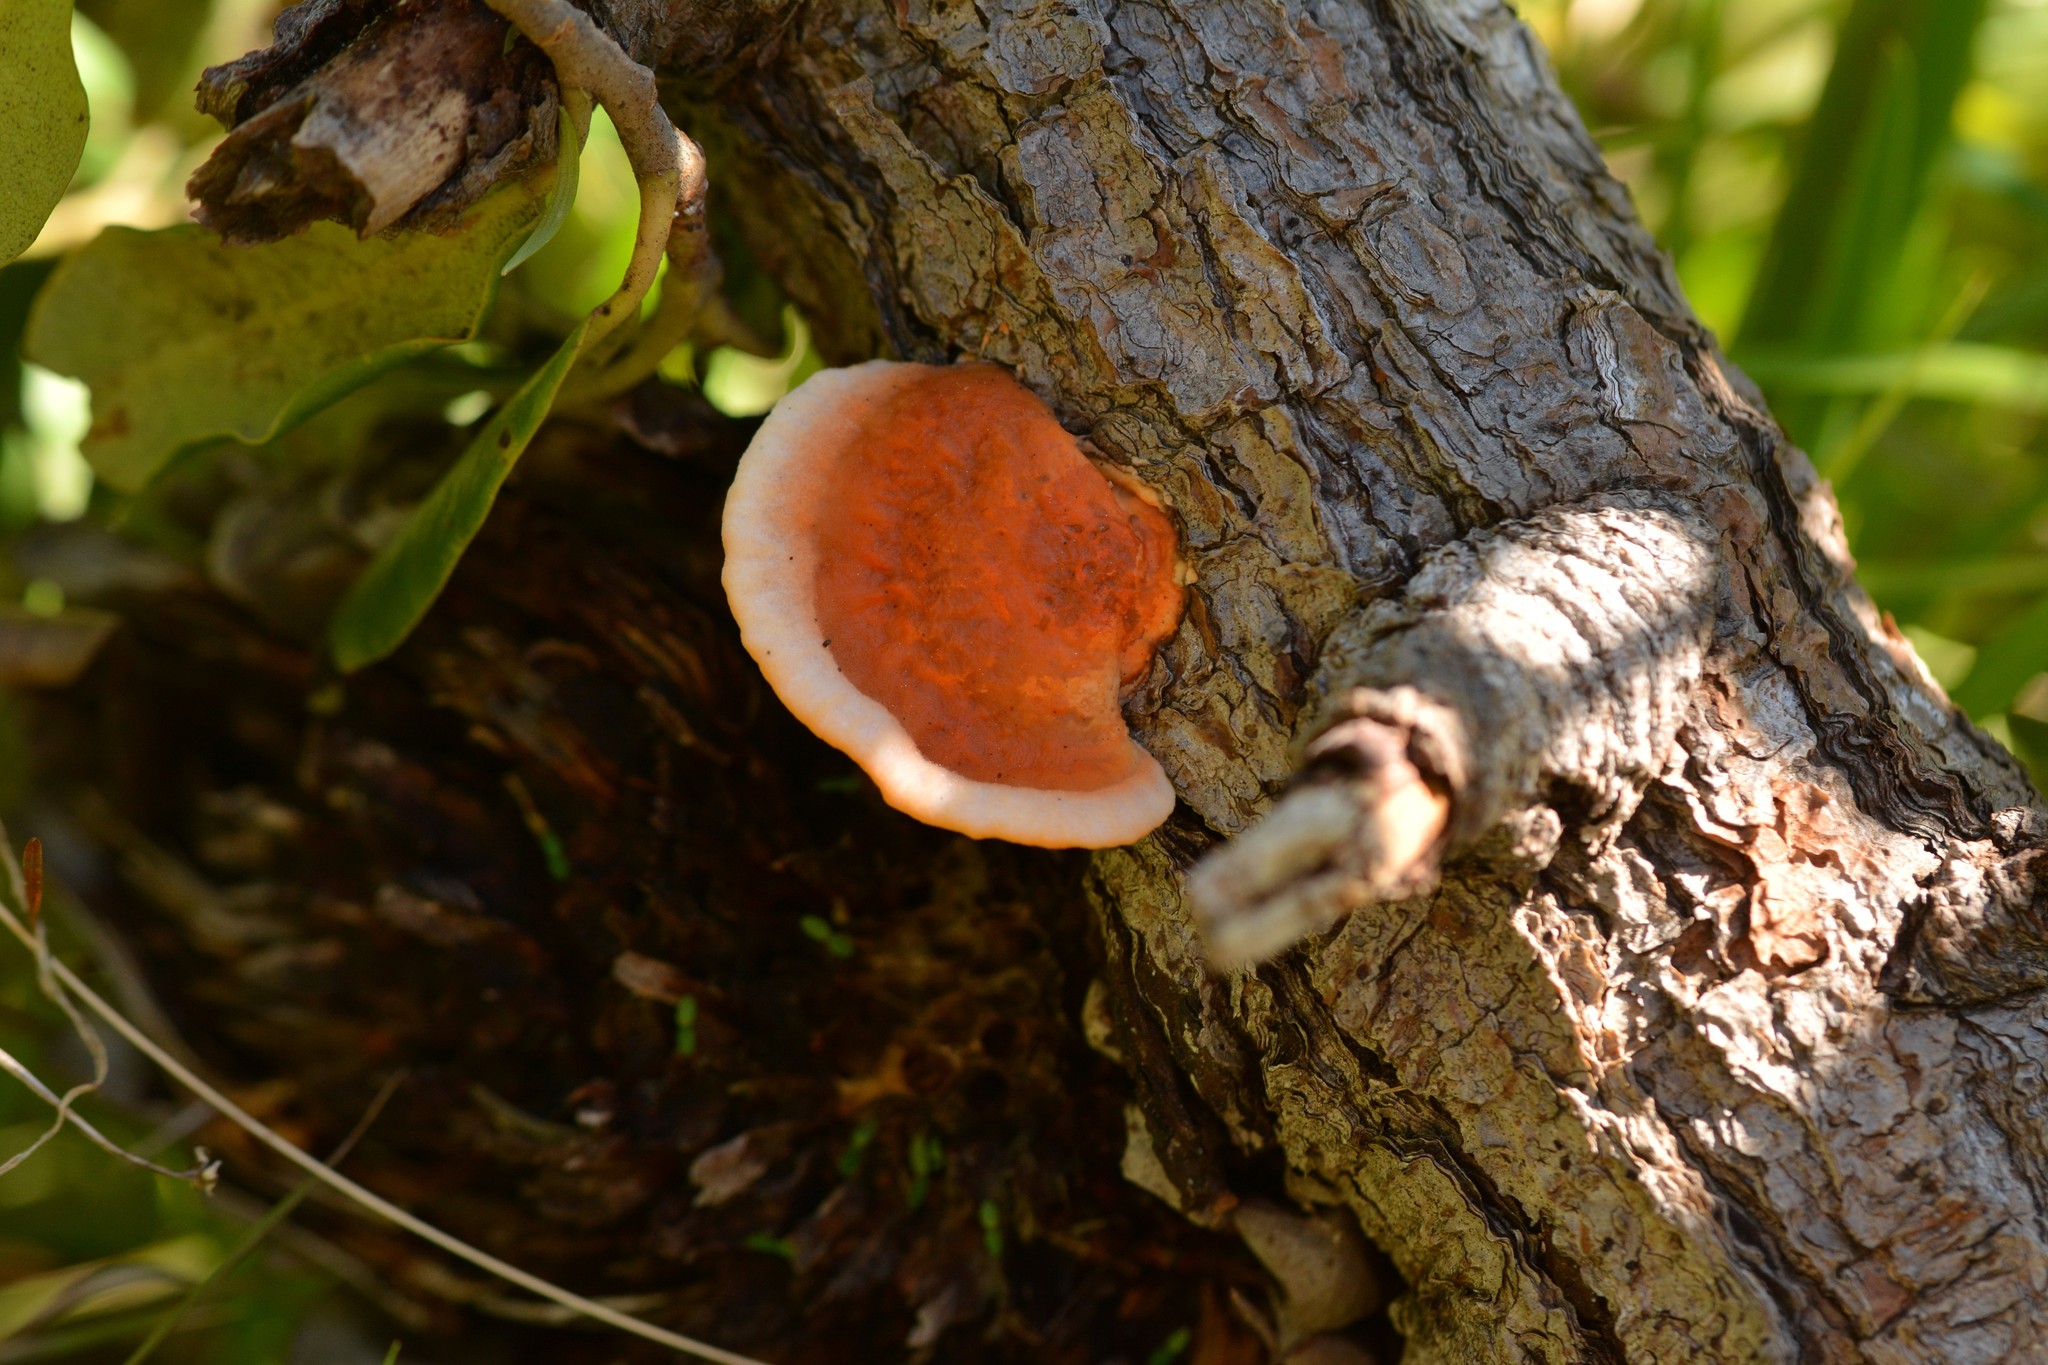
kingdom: Fungi
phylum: Basidiomycota
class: Agaricomycetes
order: Polyporales
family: Polyporaceae
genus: Trametes
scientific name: Trametes coccinea
